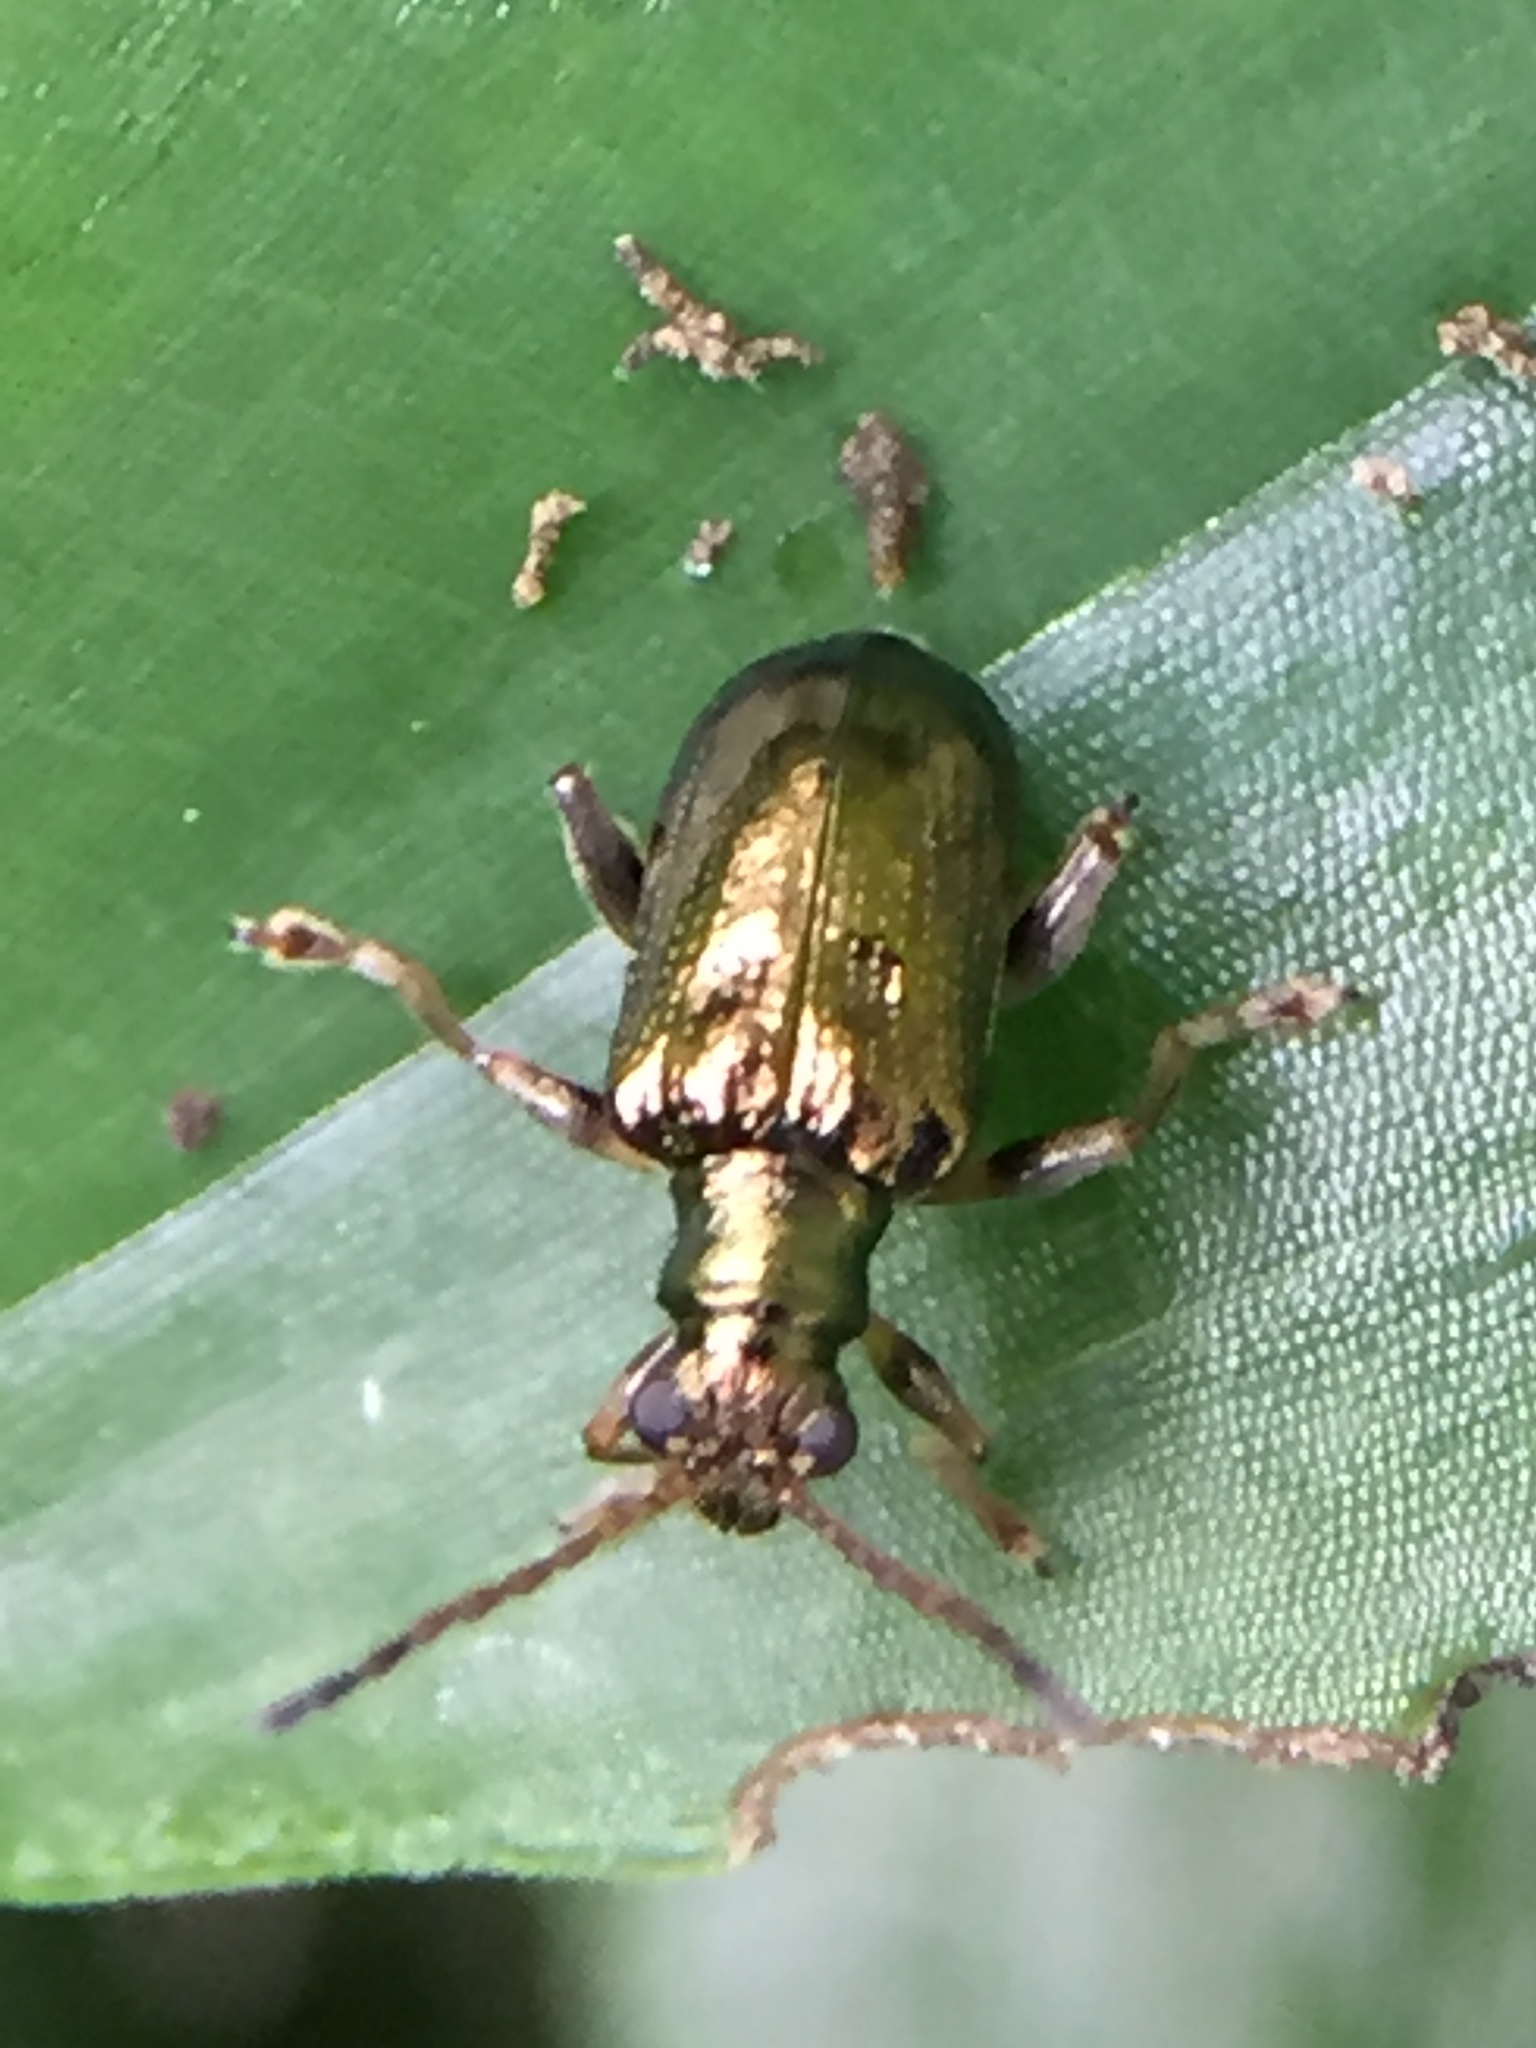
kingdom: Animalia
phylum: Arthropoda
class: Insecta
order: Coleoptera
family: Chrysomelidae
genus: Neolema
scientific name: Neolema ogloblini
